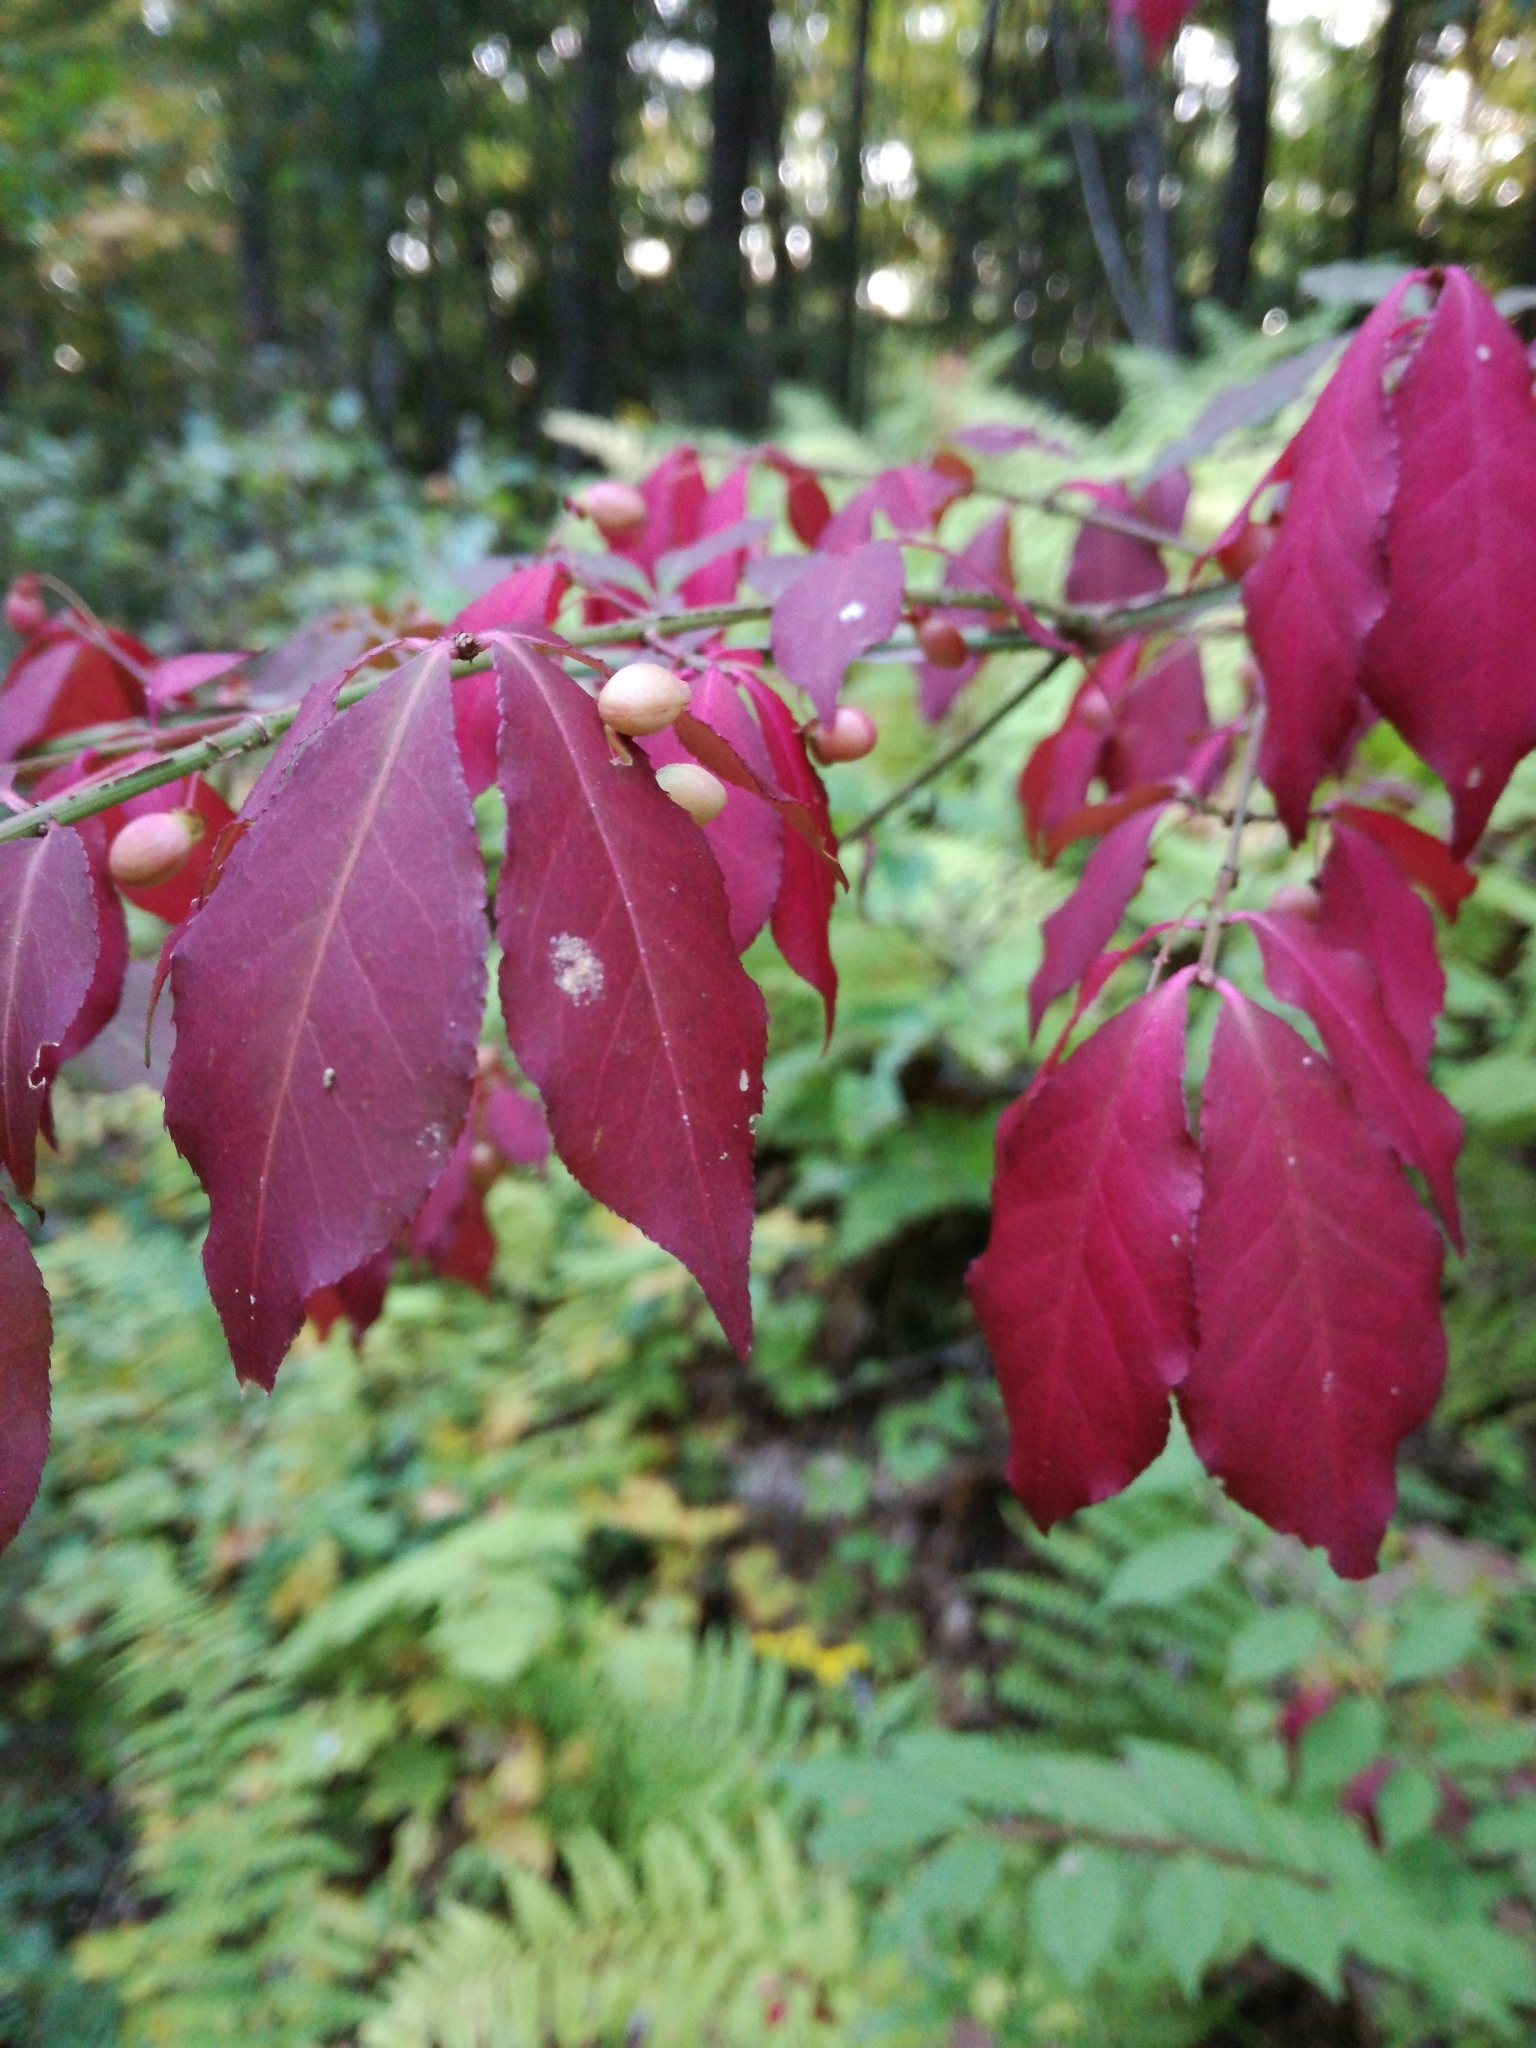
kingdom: Plantae
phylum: Tracheophyta
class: Magnoliopsida
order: Celastrales
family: Celastraceae
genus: Euonymus
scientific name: Euonymus alatus
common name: Winged euonymus
